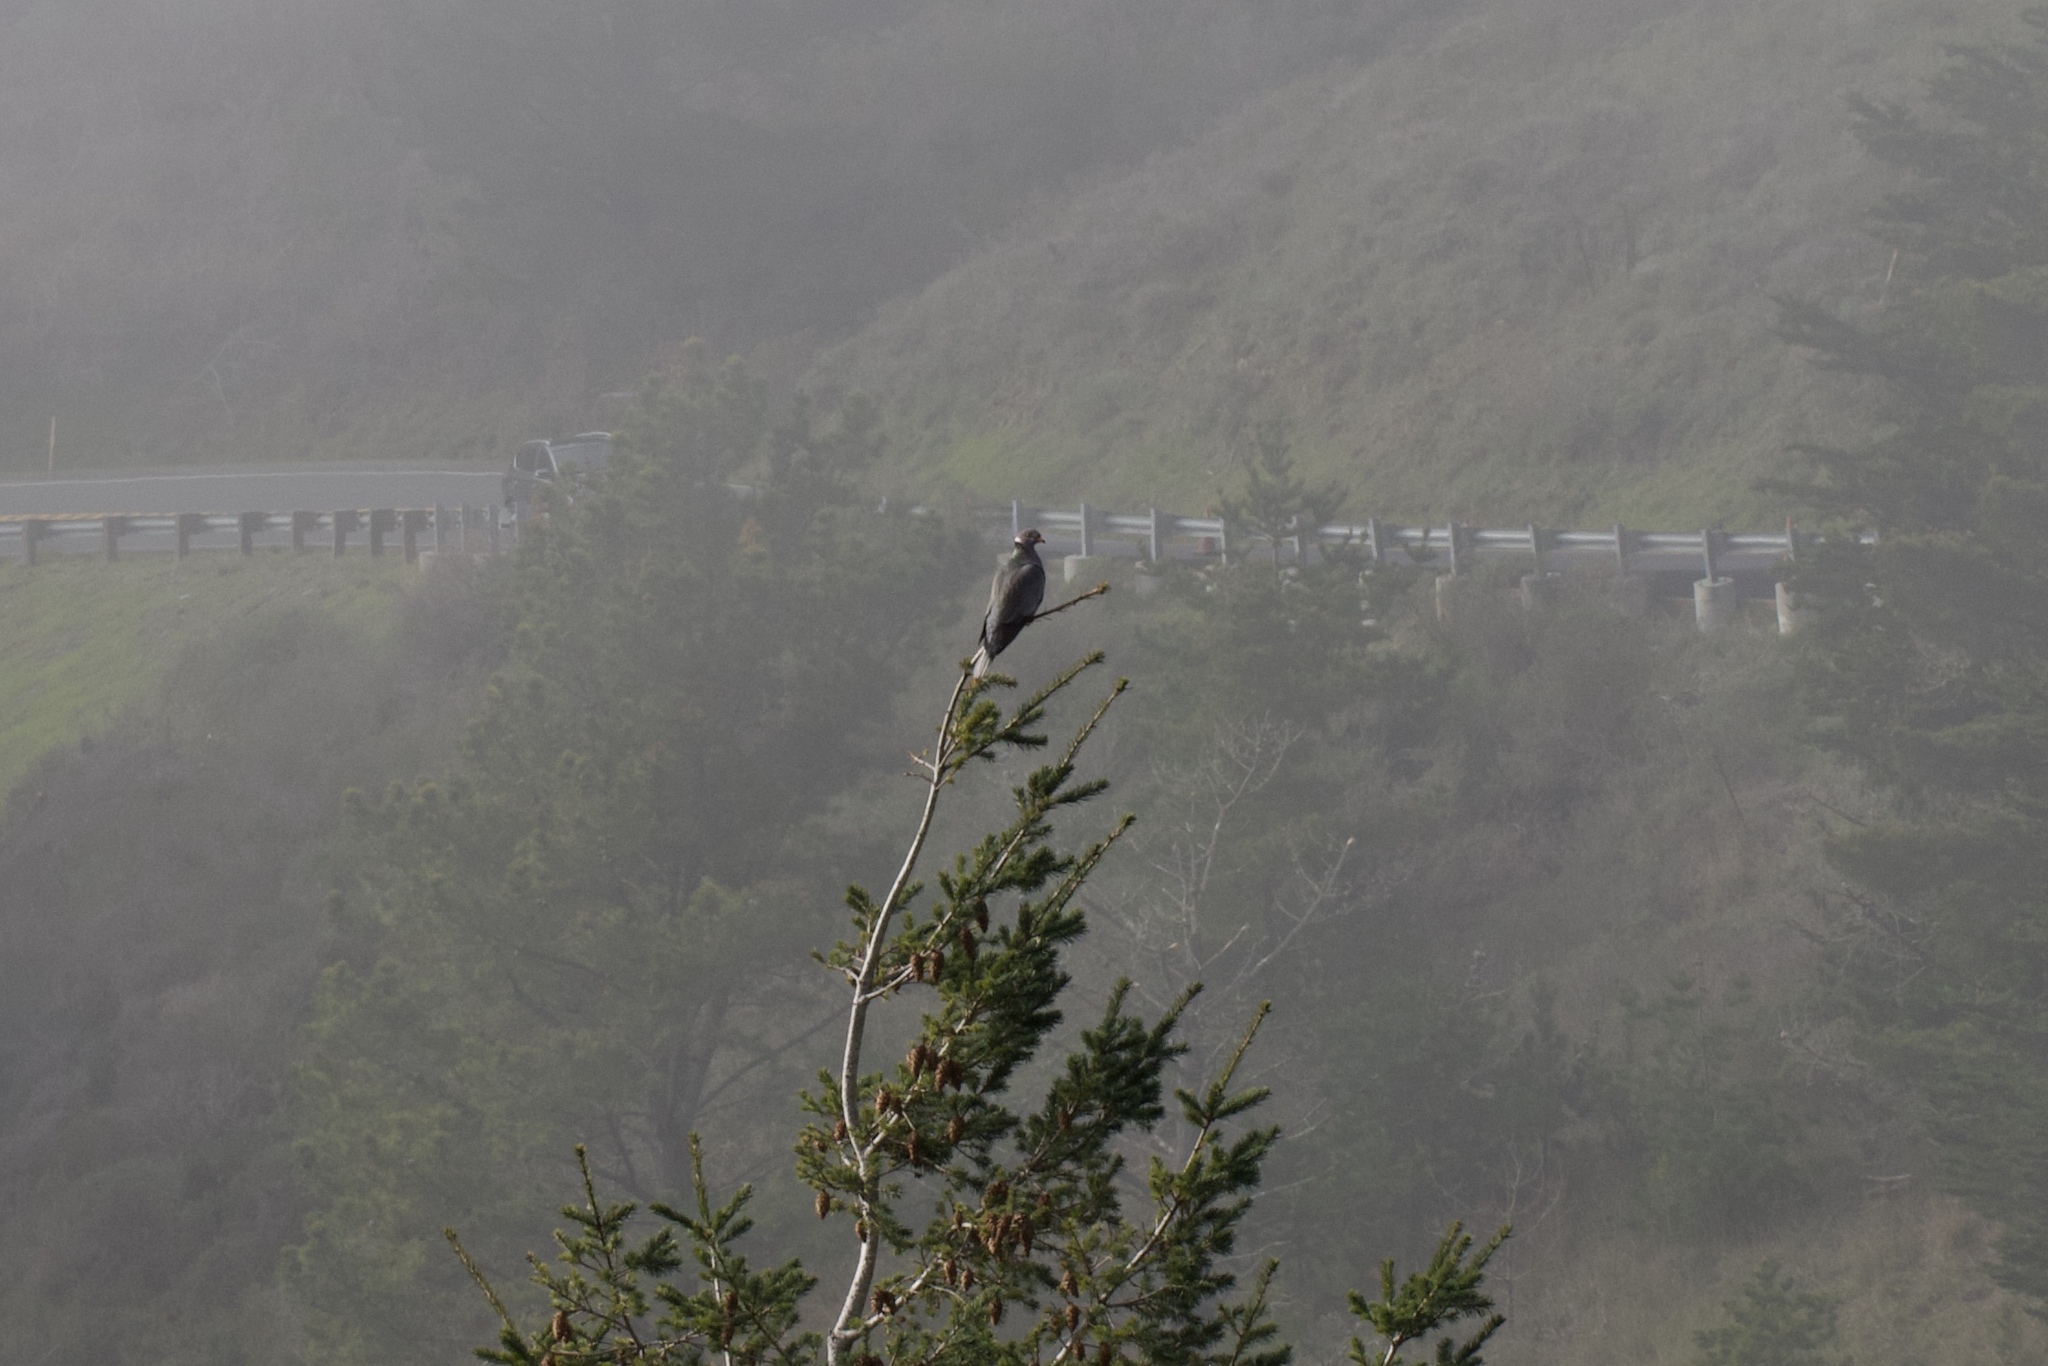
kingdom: Animalia
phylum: Chordata
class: Aves
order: Columbiformes
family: Columbidae
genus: Patagioenas
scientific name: Patagioenas fasciata
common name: Band-tailed pigeon
